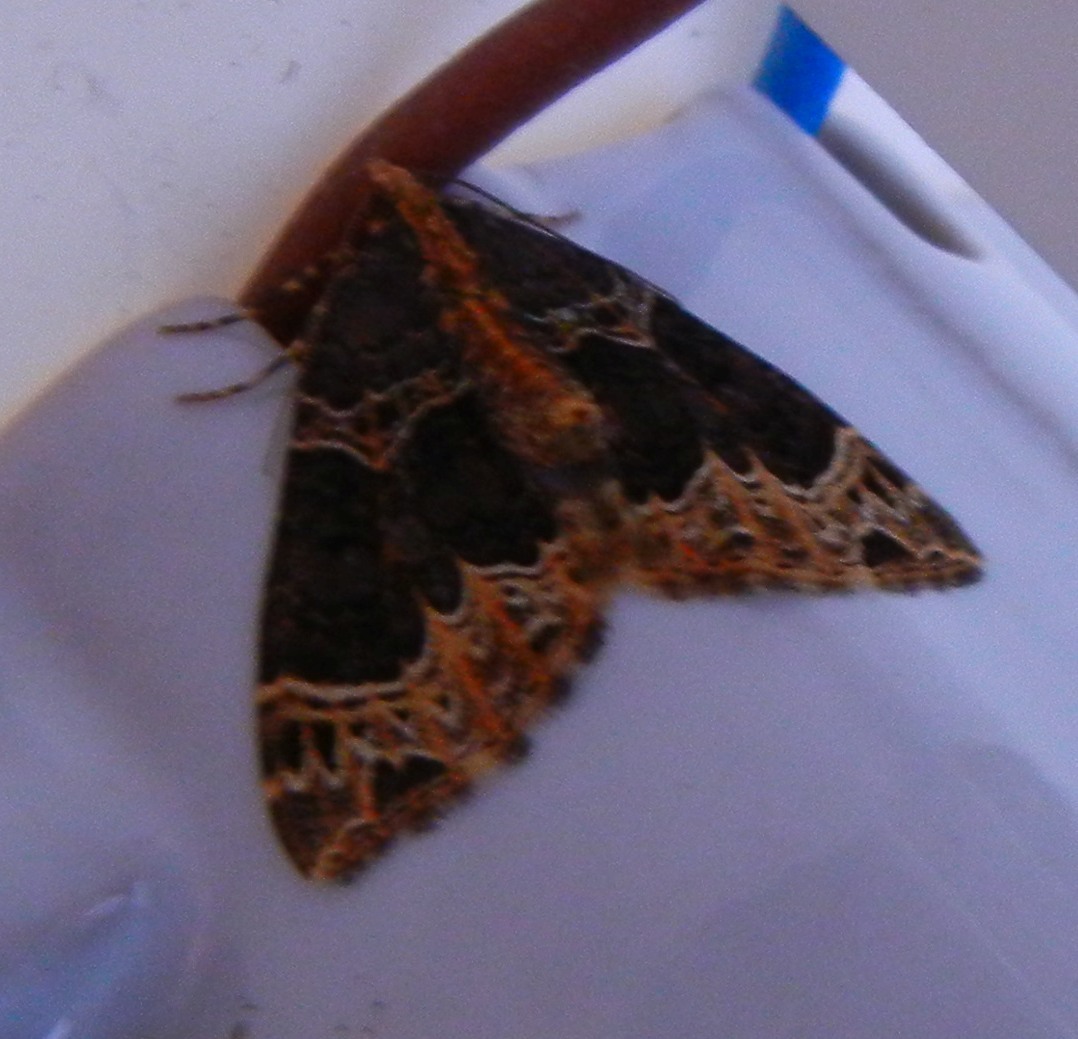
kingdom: Animalia
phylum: Arthropoda
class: Insecta
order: Lepidoptera
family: Geometridae
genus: Ecliptopera
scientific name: Ecliptopera silaceata
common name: Small phoenix
